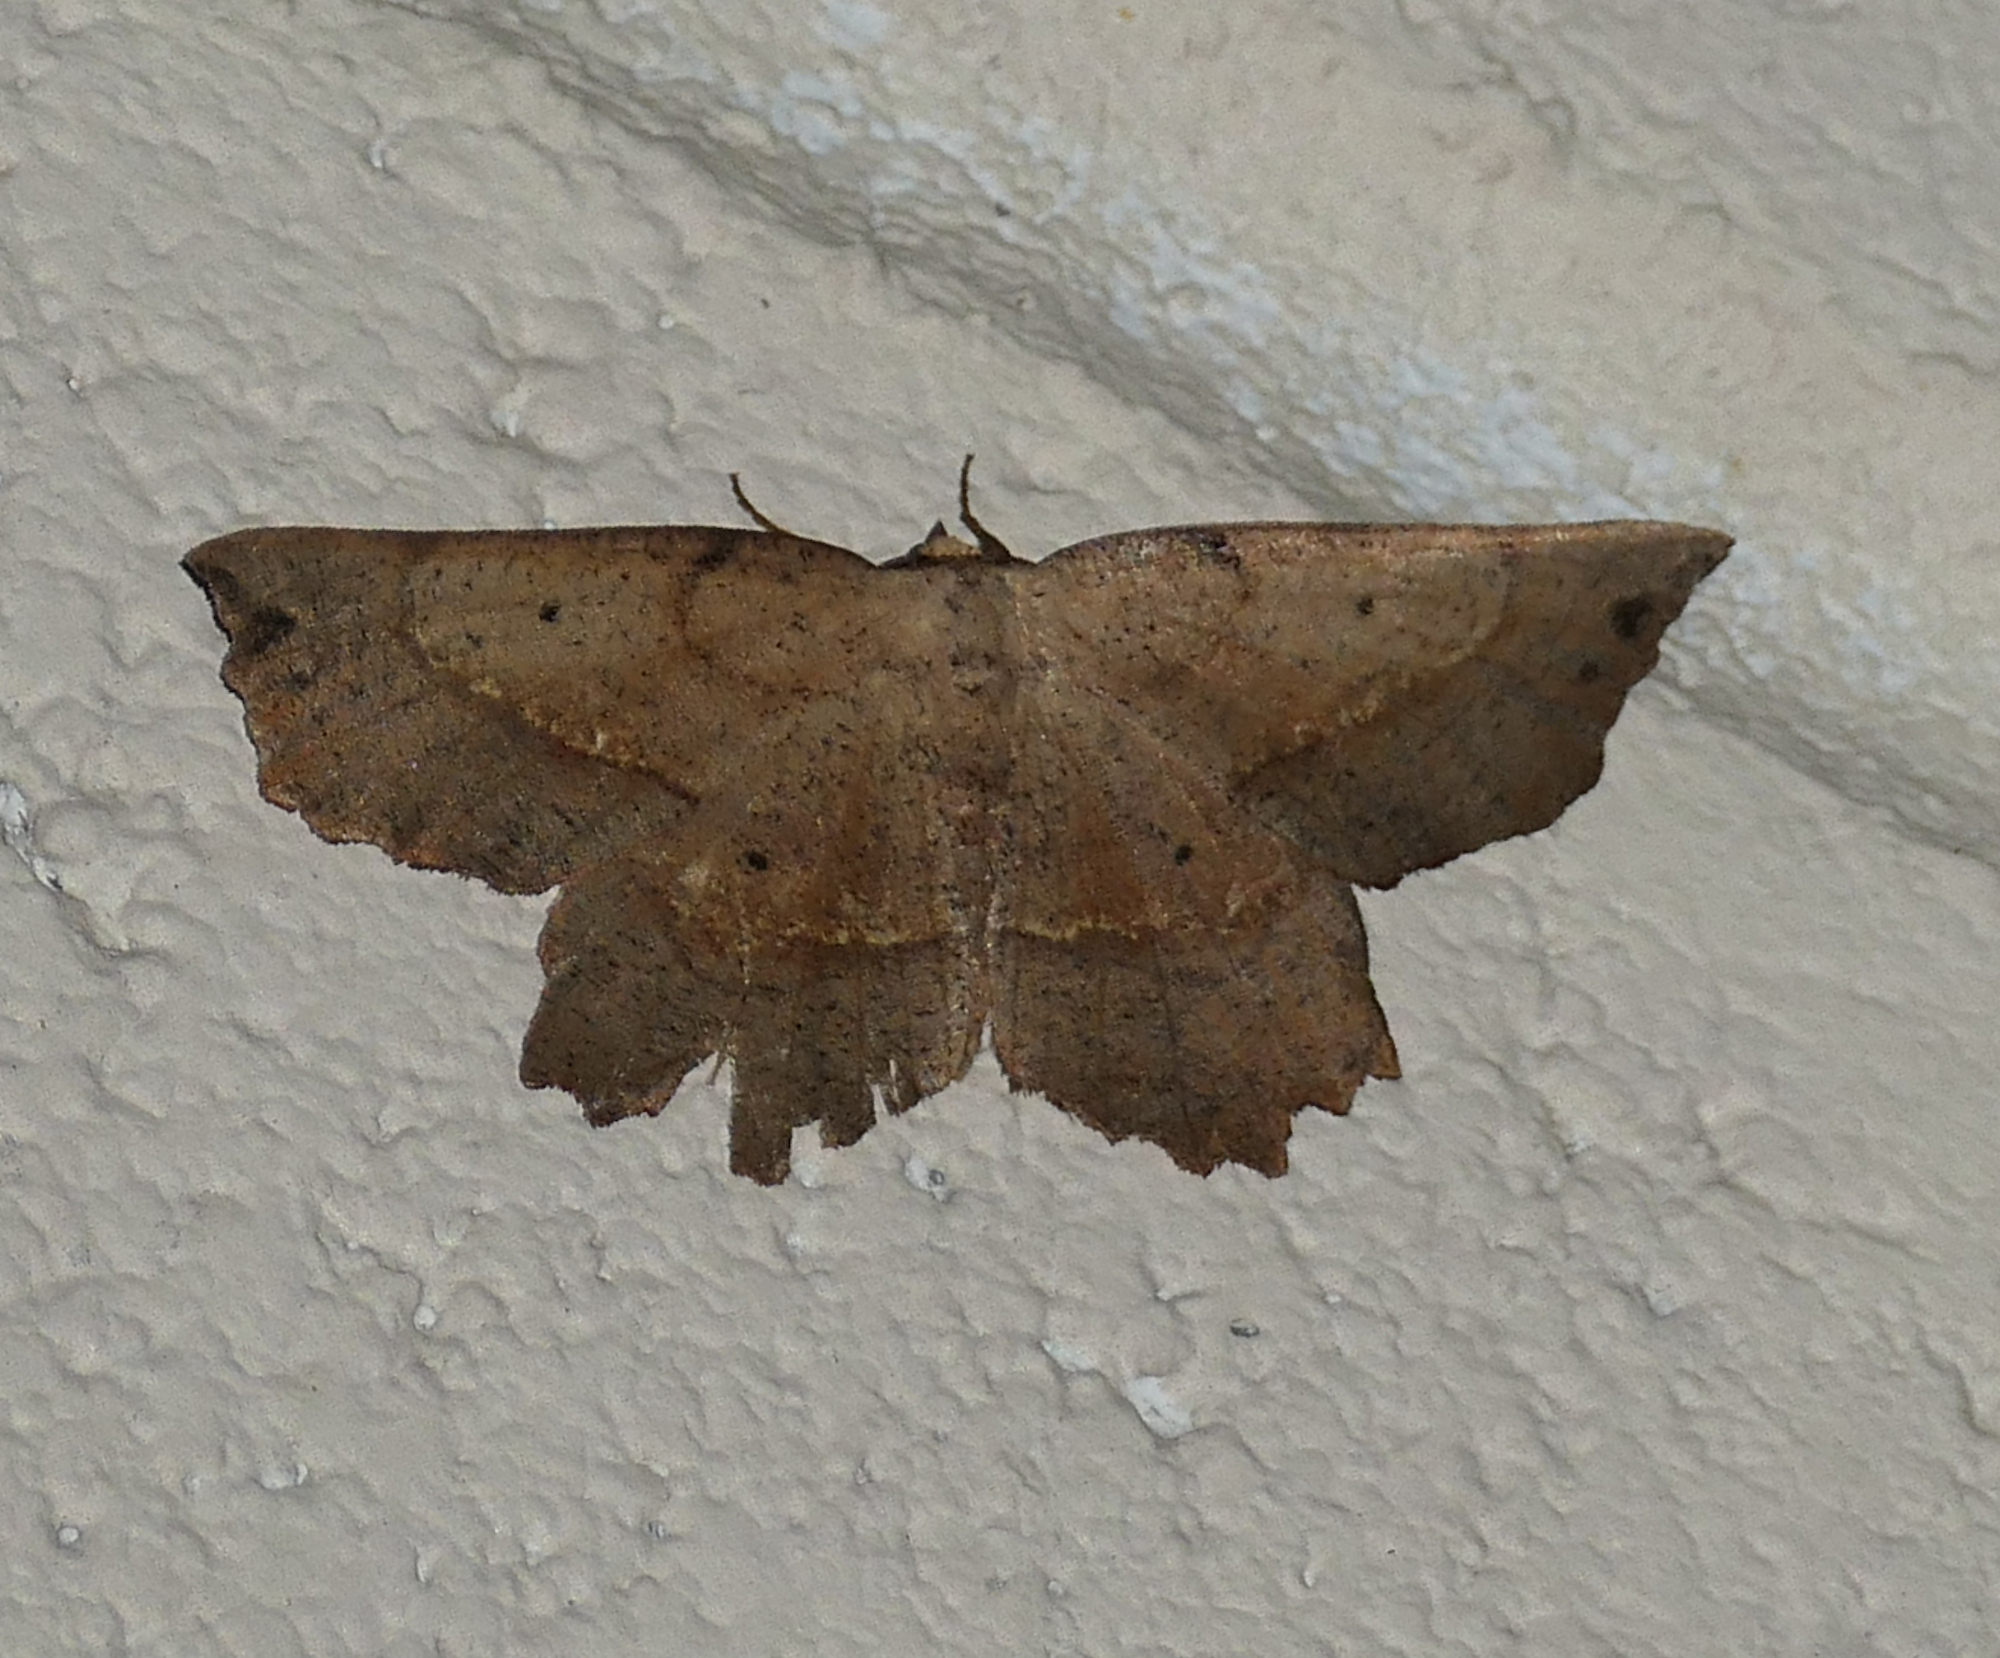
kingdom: Animalia
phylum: Arthropoda
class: Insecta
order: Lepidoptera
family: Geometridae
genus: Euchlaena
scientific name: Euchlaena obtusaria
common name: Obtuse euchlaena moth
